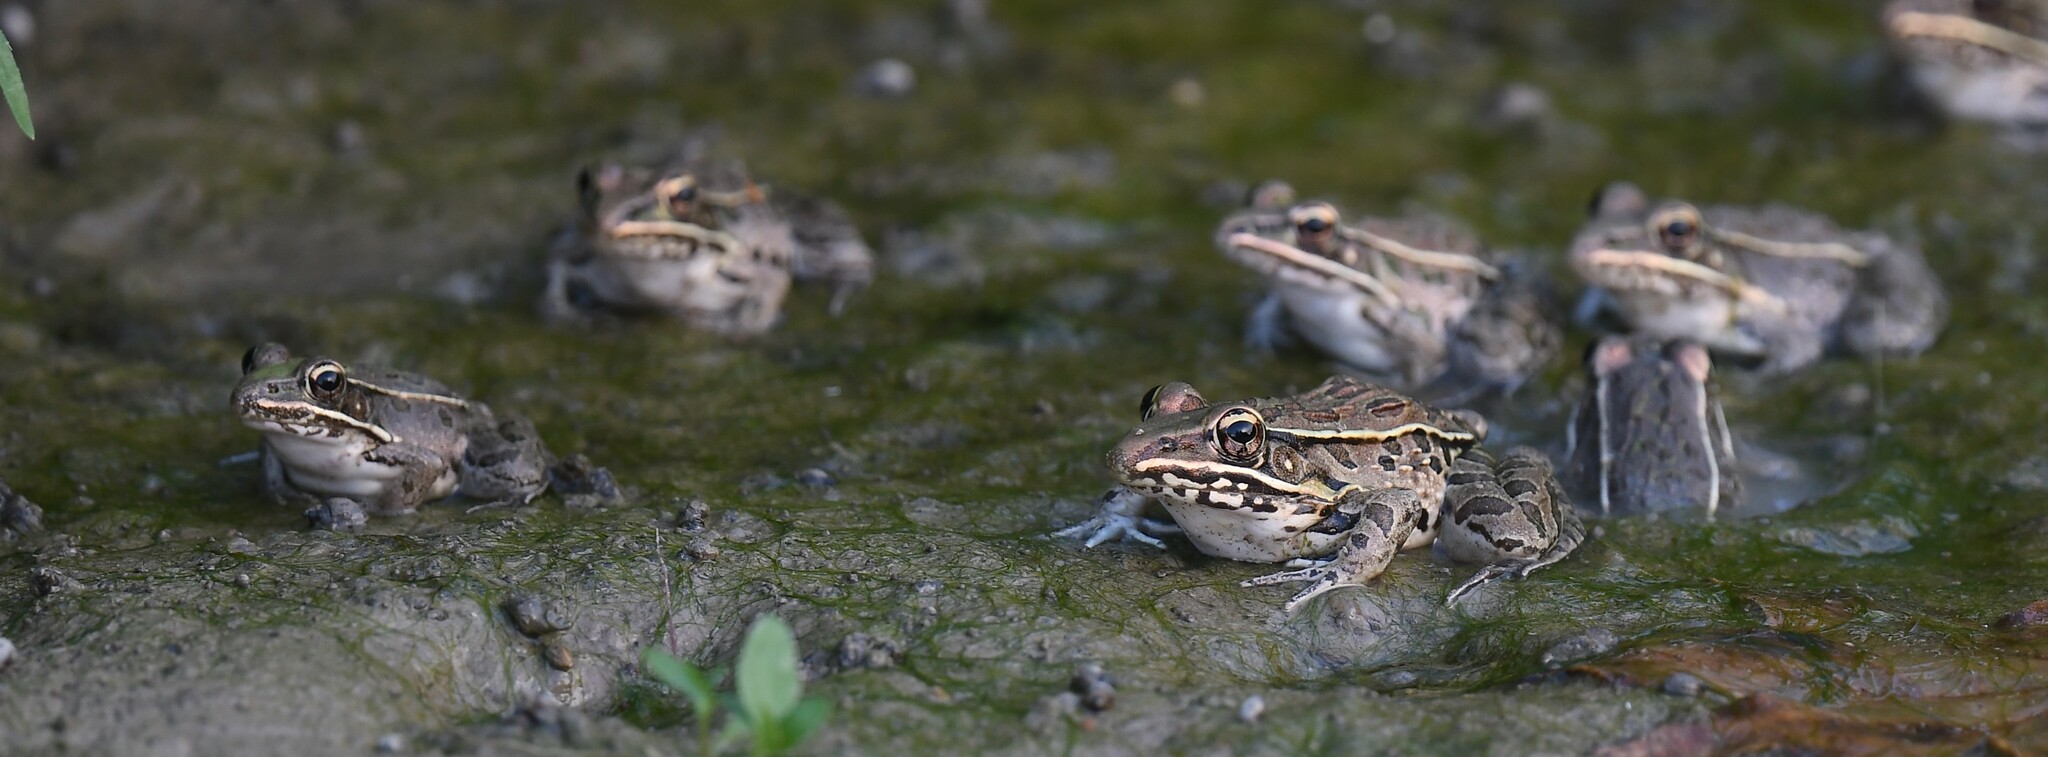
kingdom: Animalia
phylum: Chordata
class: Amphibia
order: Anura
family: Ranidae
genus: Lithobates
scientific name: Lithobates sphenocephalus
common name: Southern leopard frog
